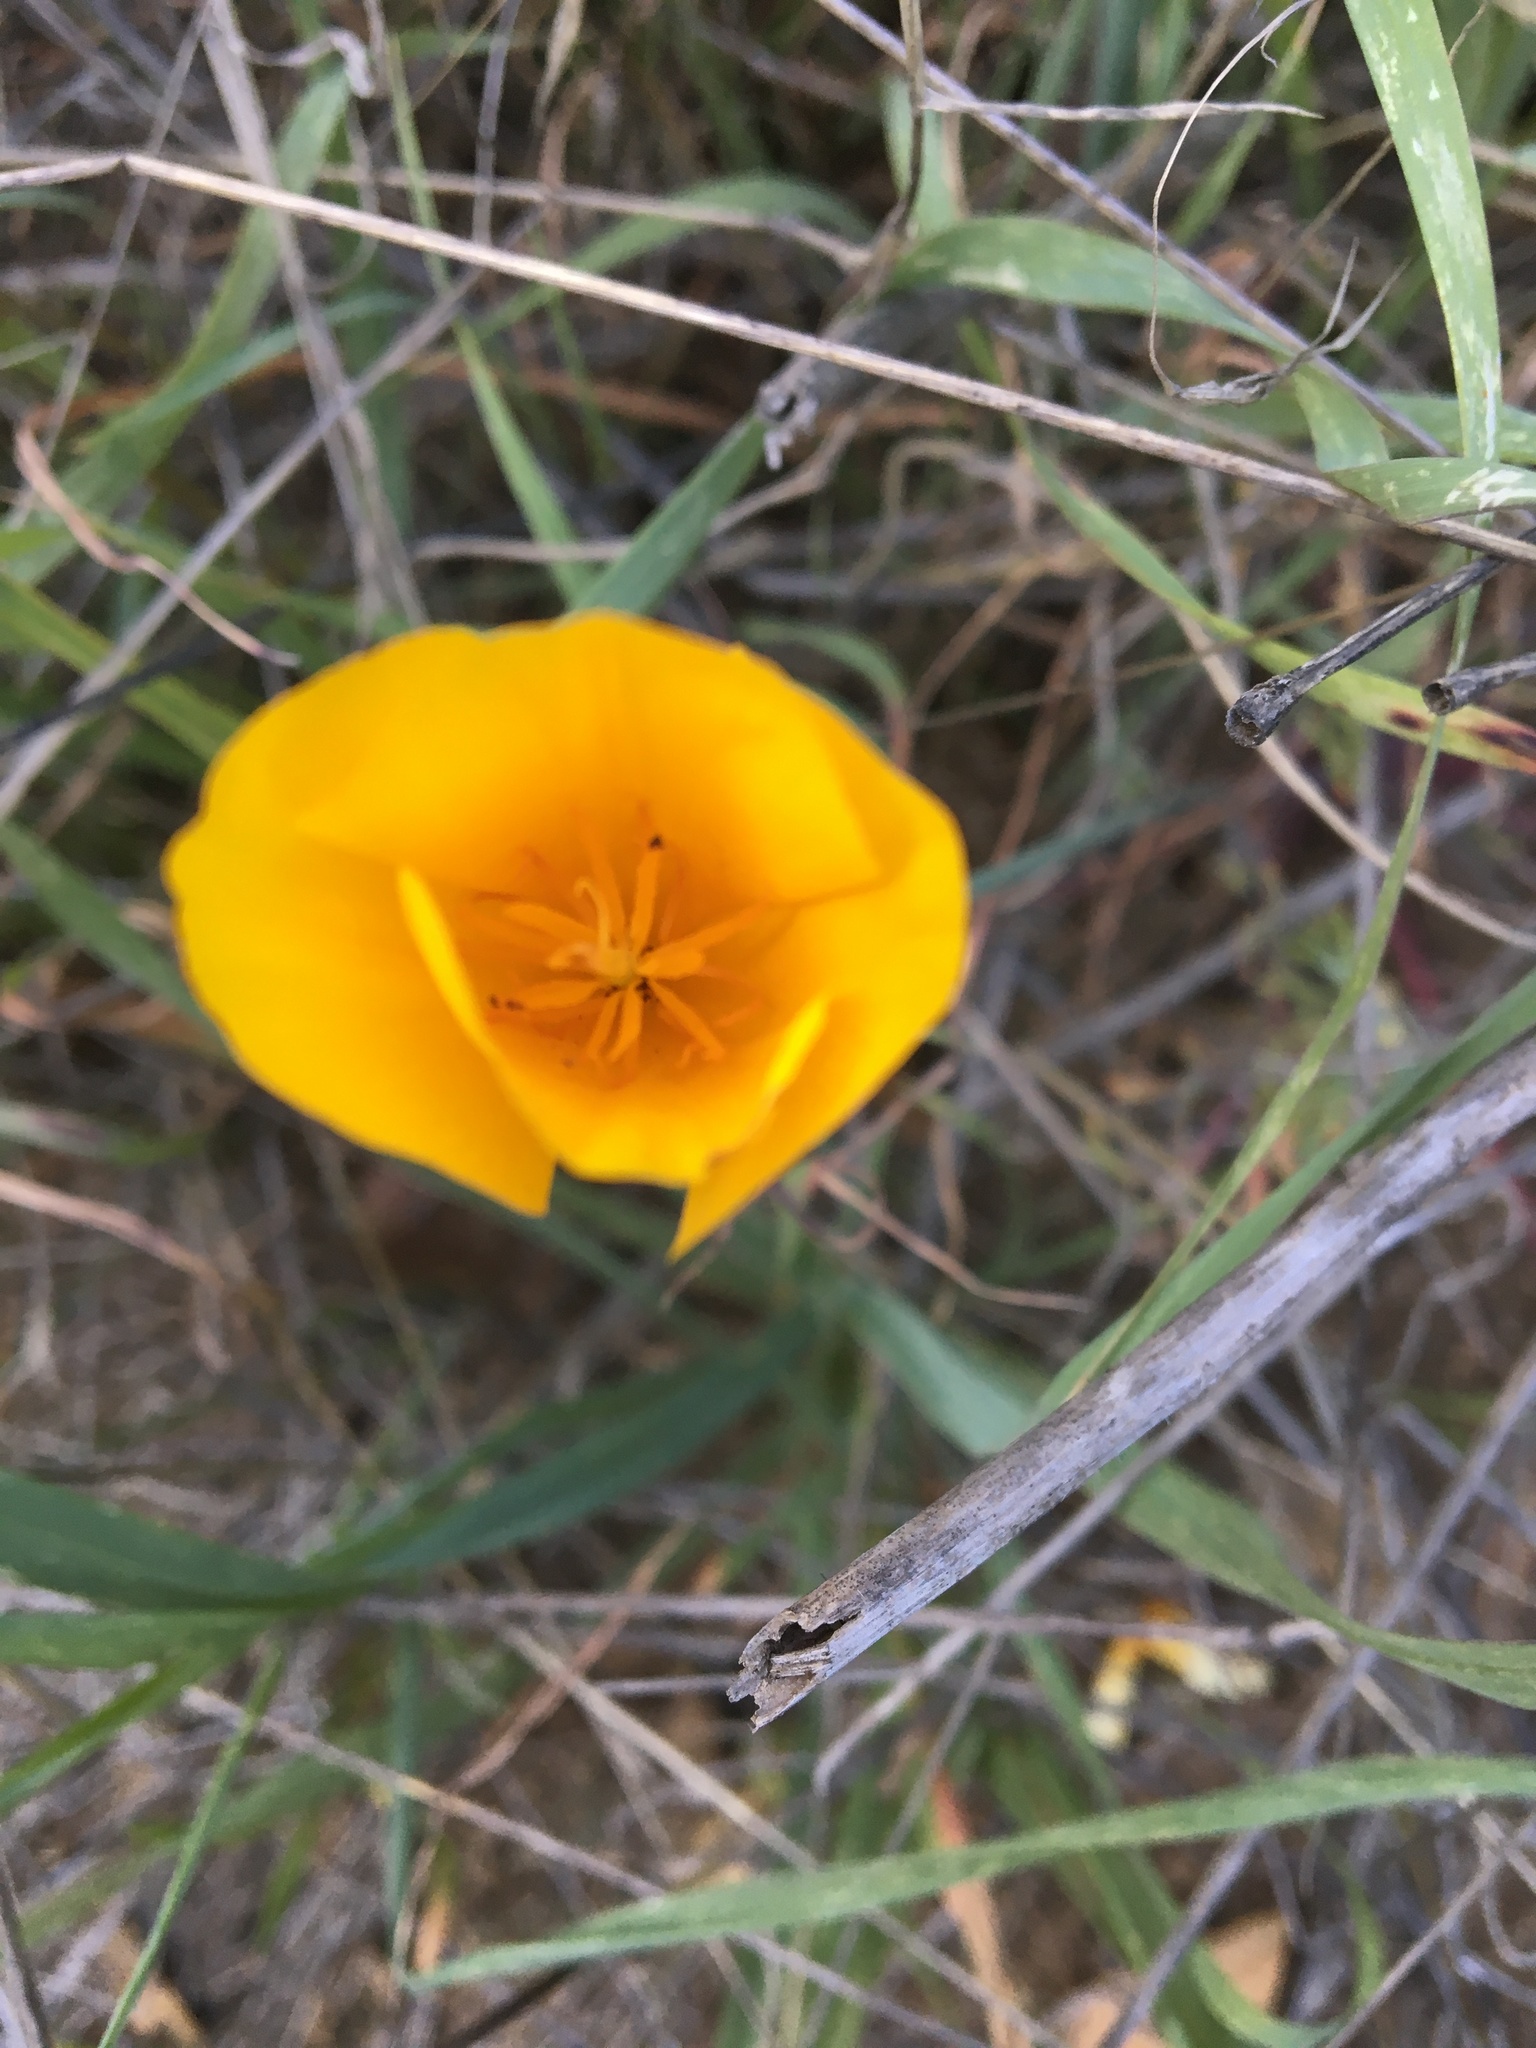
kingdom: Plantae
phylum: Tracheophyta
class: Magnoliopsida
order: Ranunculales
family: Papaveraceae
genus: Eschscholzia
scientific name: Eschscholzia caespitosa
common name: Tufted california-poppy
